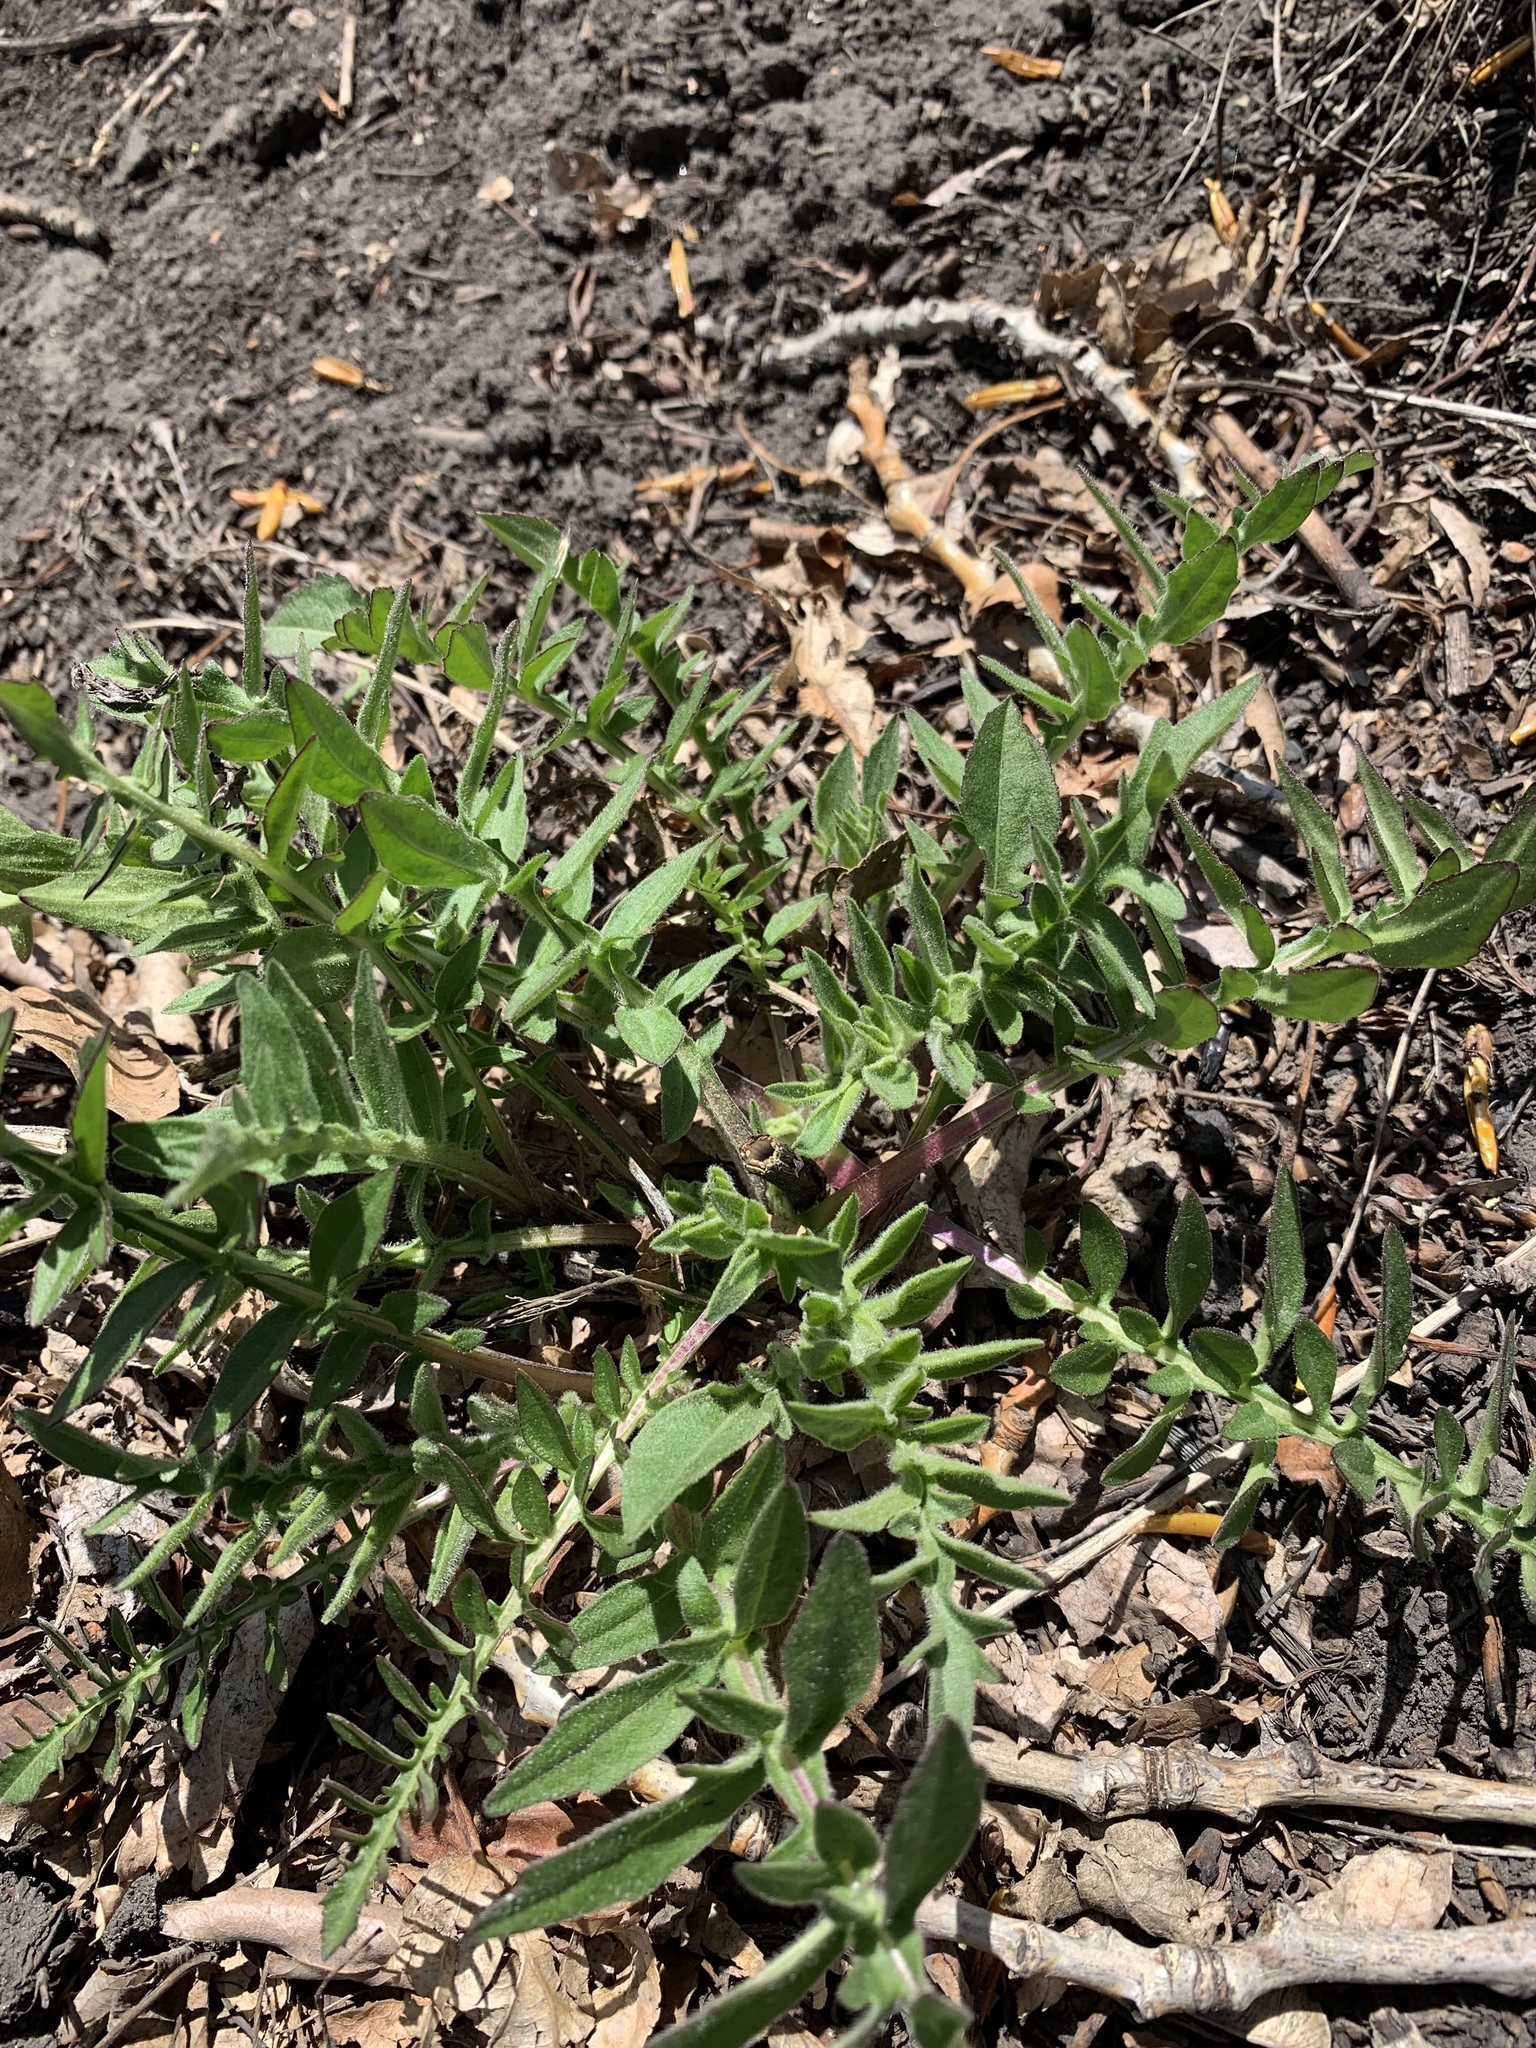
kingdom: Plantae
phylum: Tracheophyta
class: Magnoliopsida
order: Asterales
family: Asteraceae
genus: Centaurea
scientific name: Centaurea scabiosa
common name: Greater knapweed
